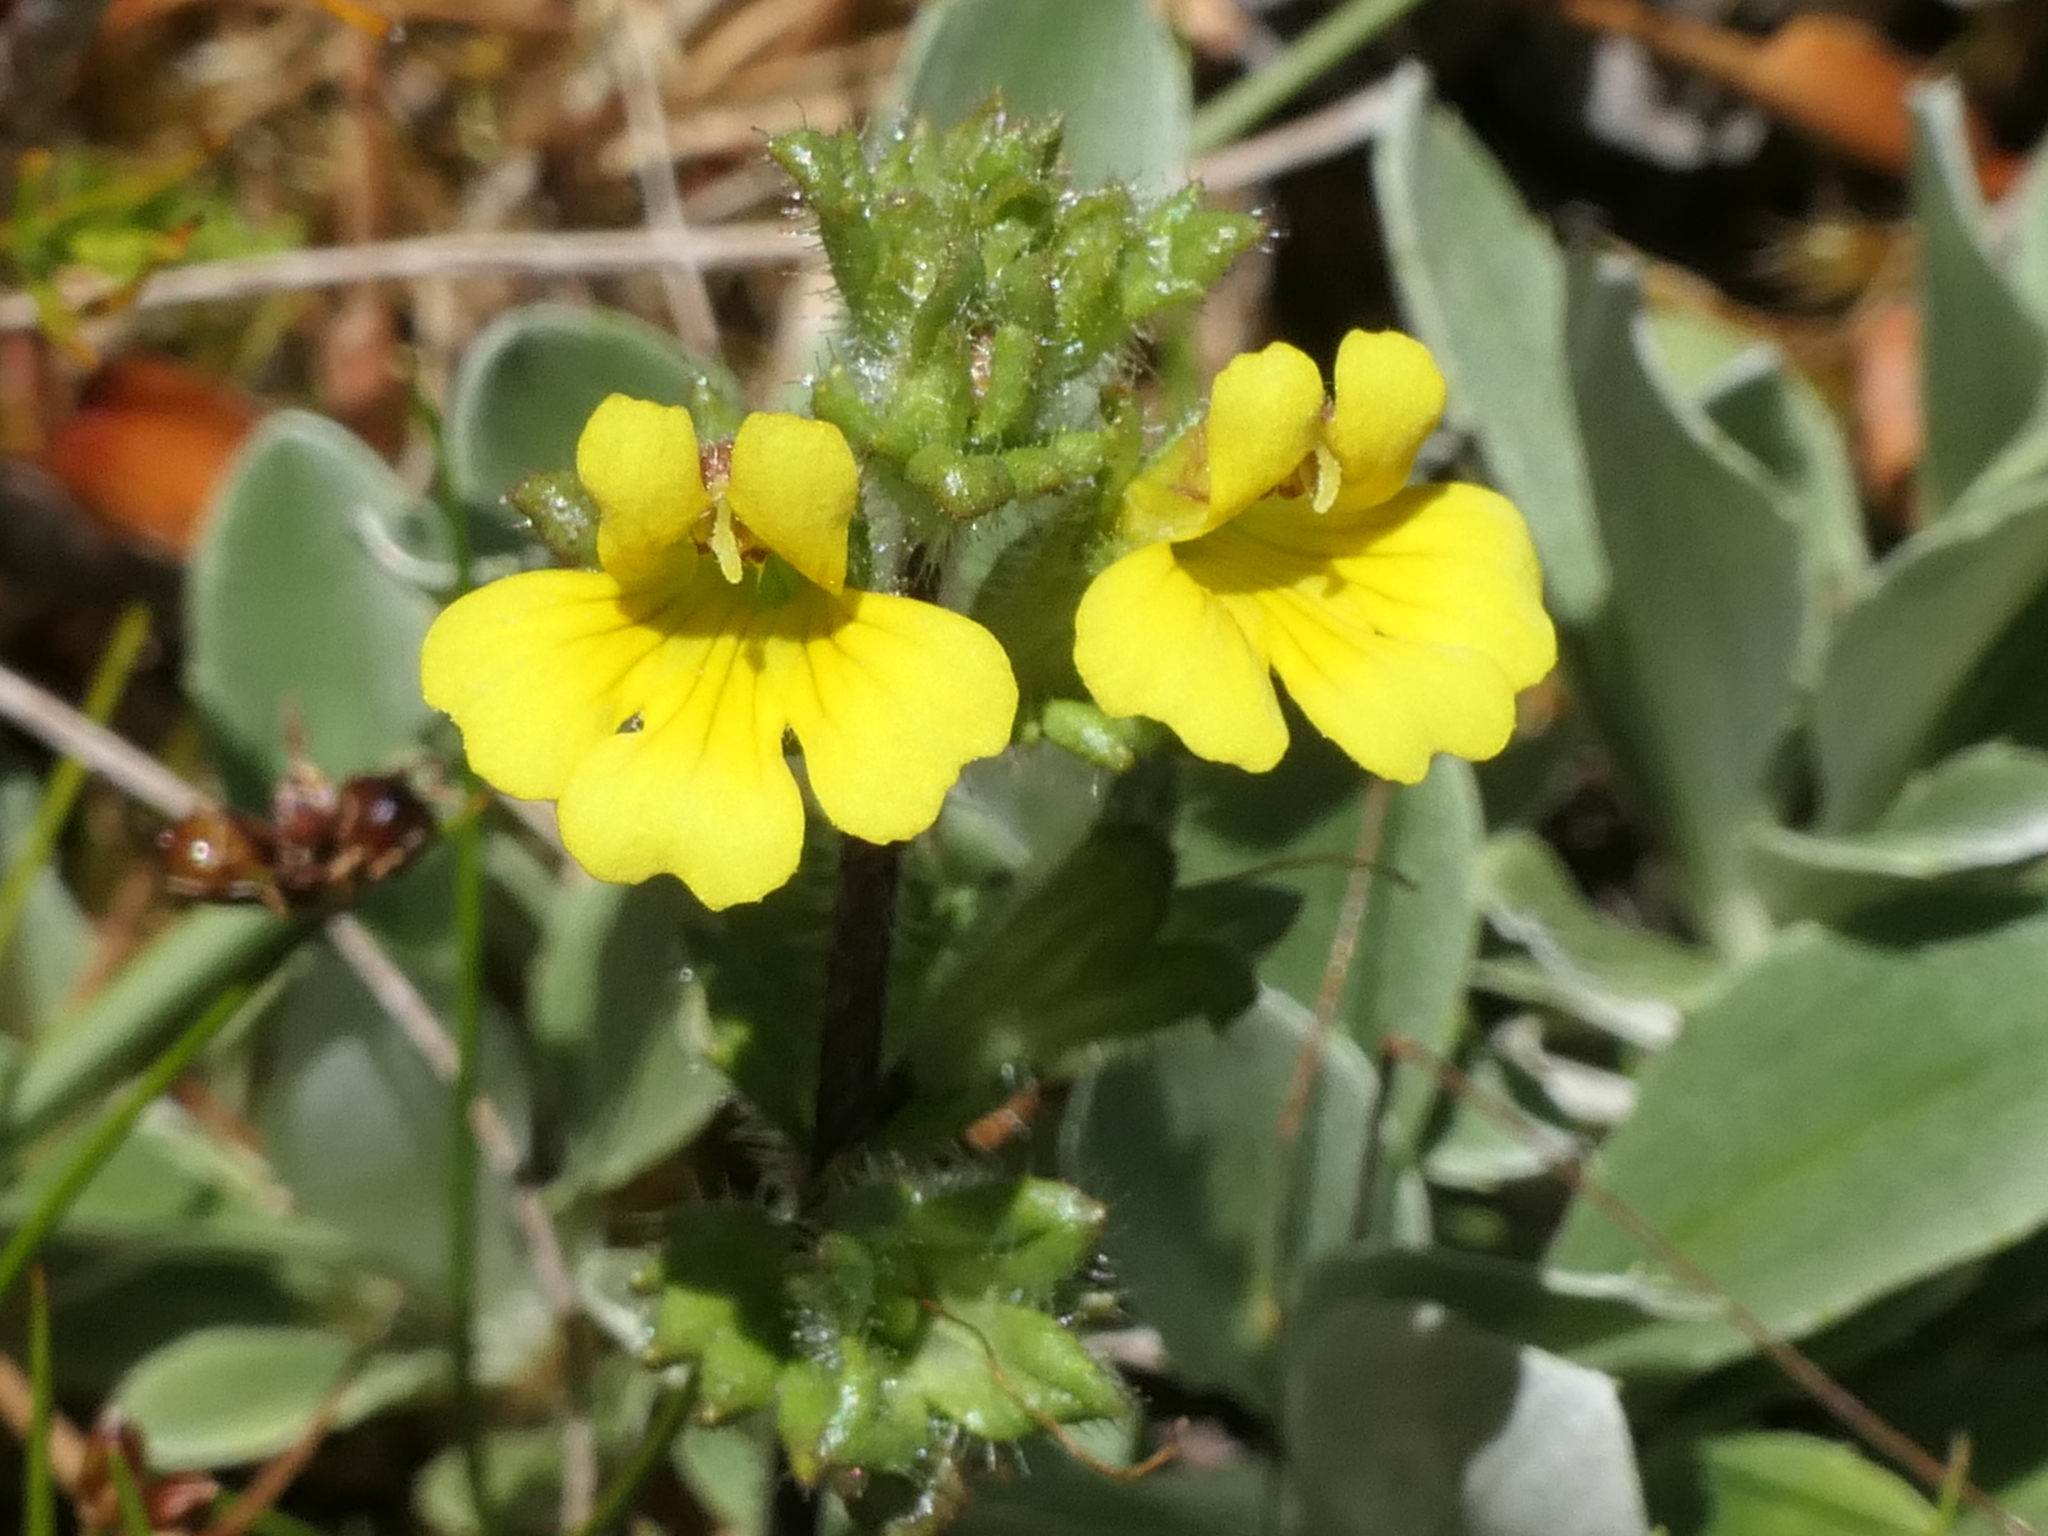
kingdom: Plantae
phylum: Tracheophyta
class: Magnoliopsida
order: Lamiales
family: Orobanchaceae
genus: Euphrasia
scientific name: Euphrasia cockayneana
